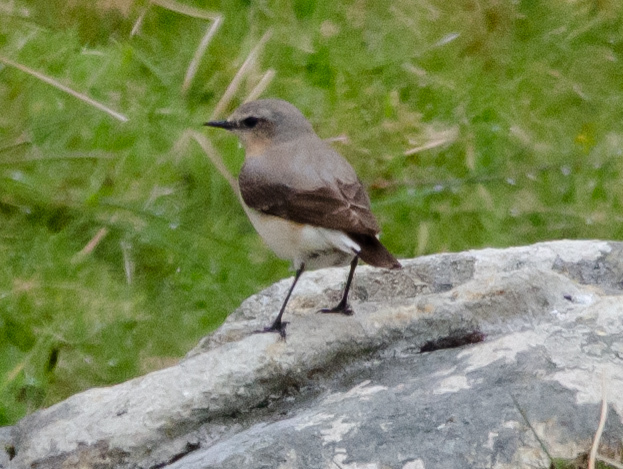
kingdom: Animalia
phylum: Chordata
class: Aves
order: Passeriformes
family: Muscicapidae
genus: Oenanthe
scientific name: Oenanthe oenanthe
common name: Northern wheatear
